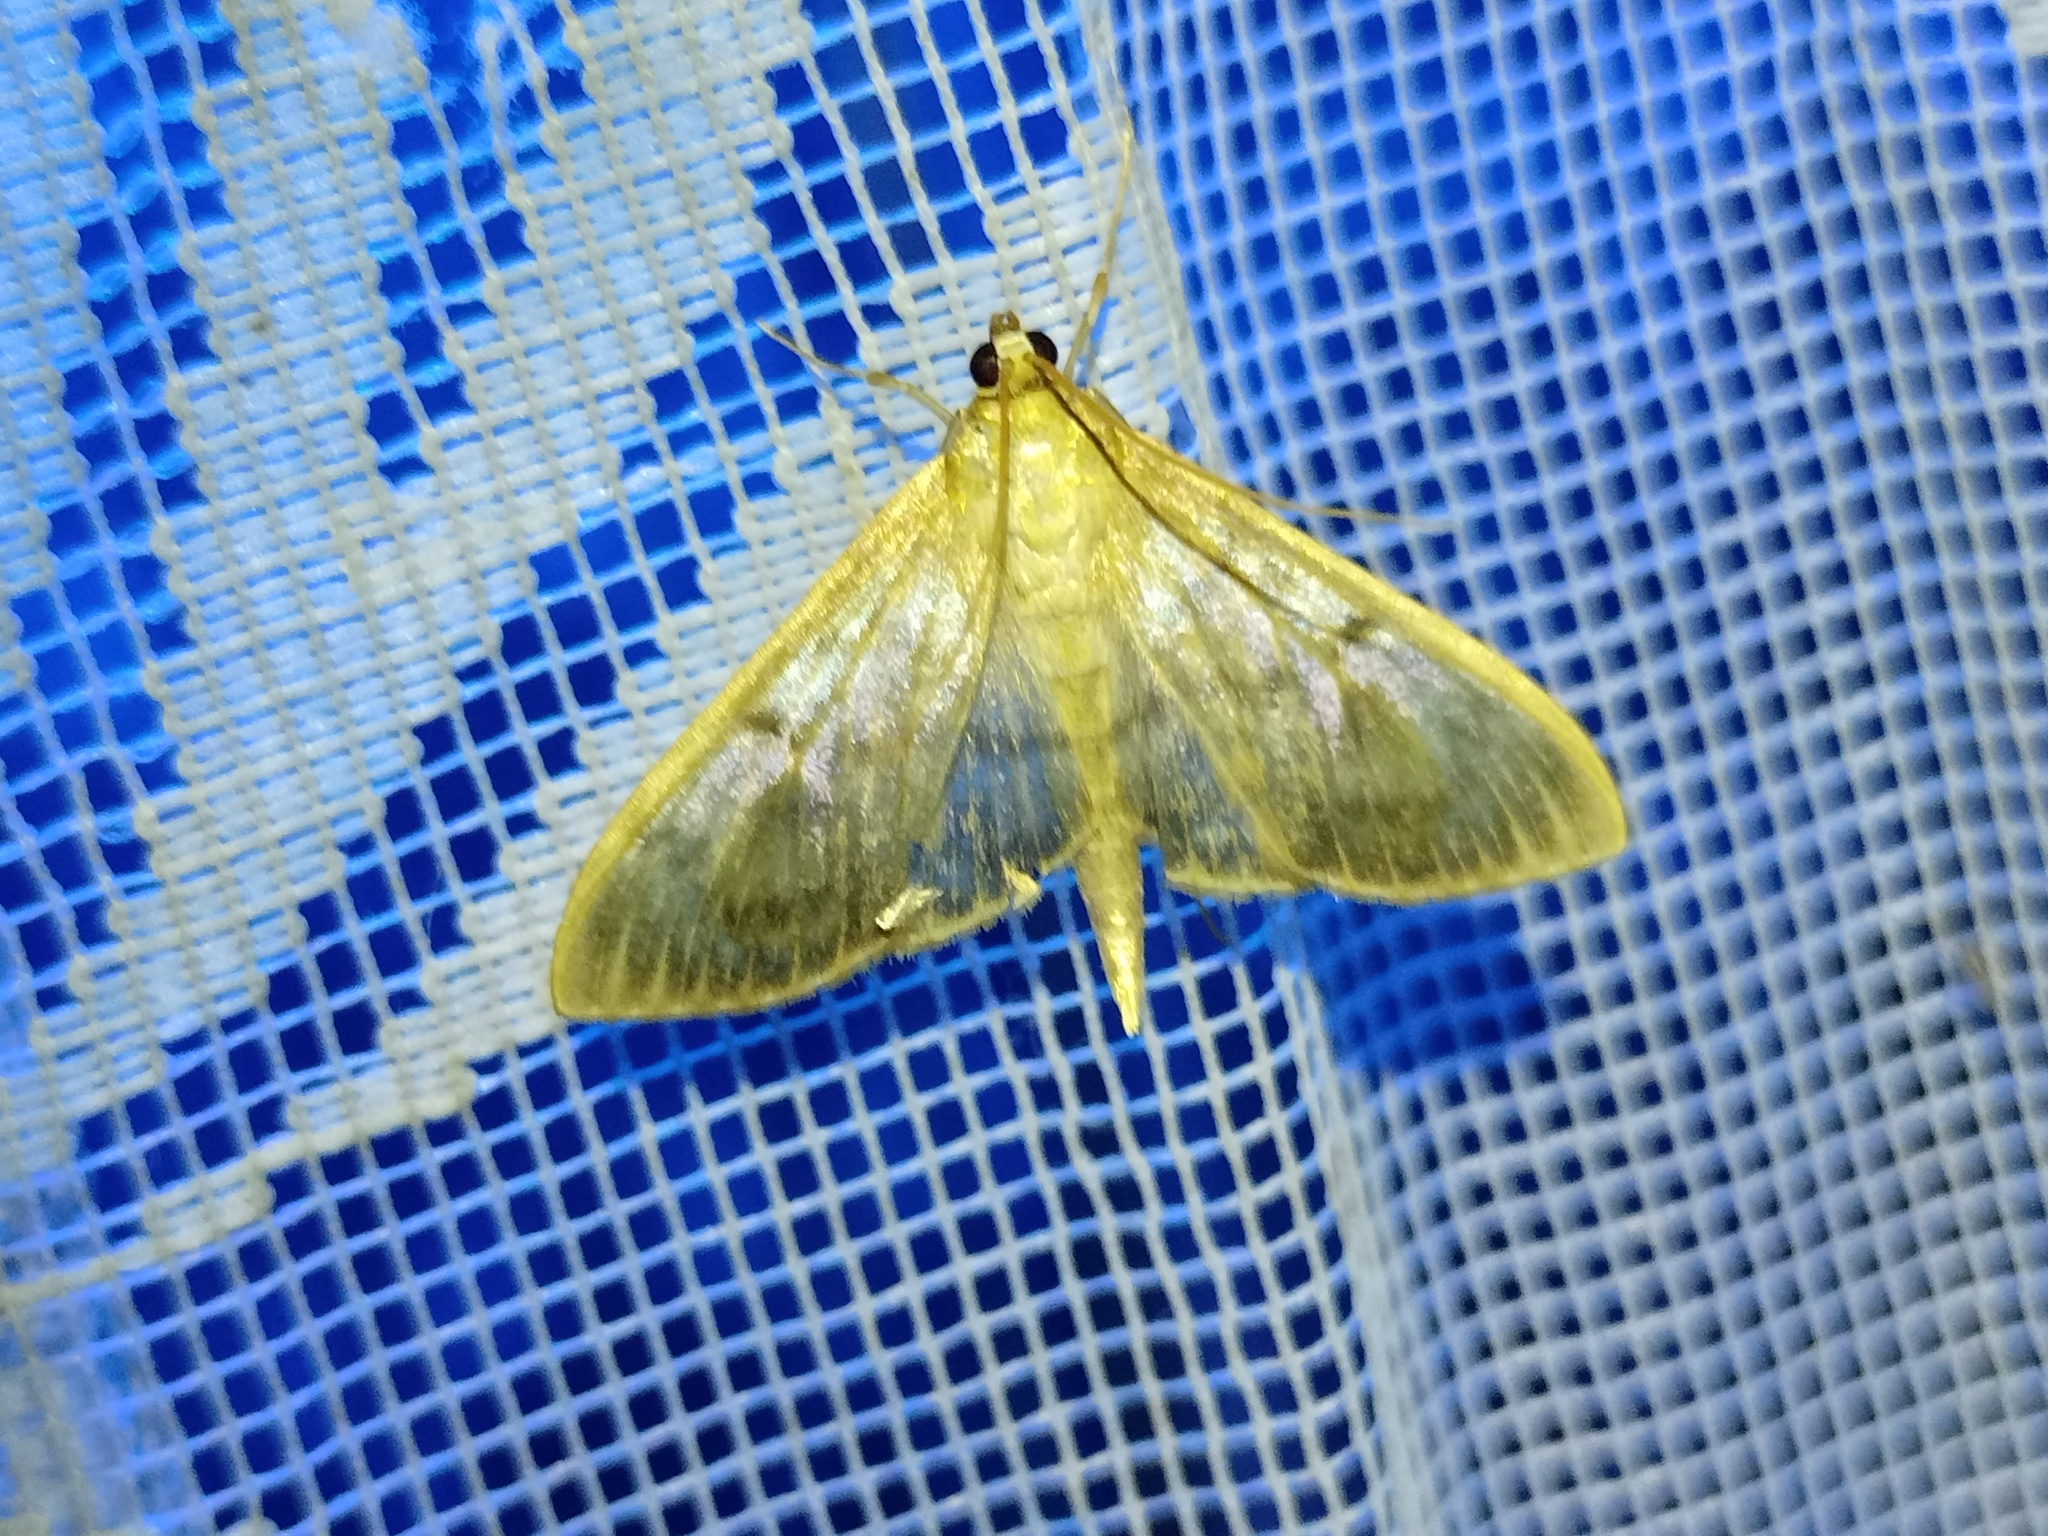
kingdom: Animalia
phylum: Arthropoda
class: Insecta
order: Lepidoptera
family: Crambidae
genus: Patania
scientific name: Patania ruralis
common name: Mother of pearl
